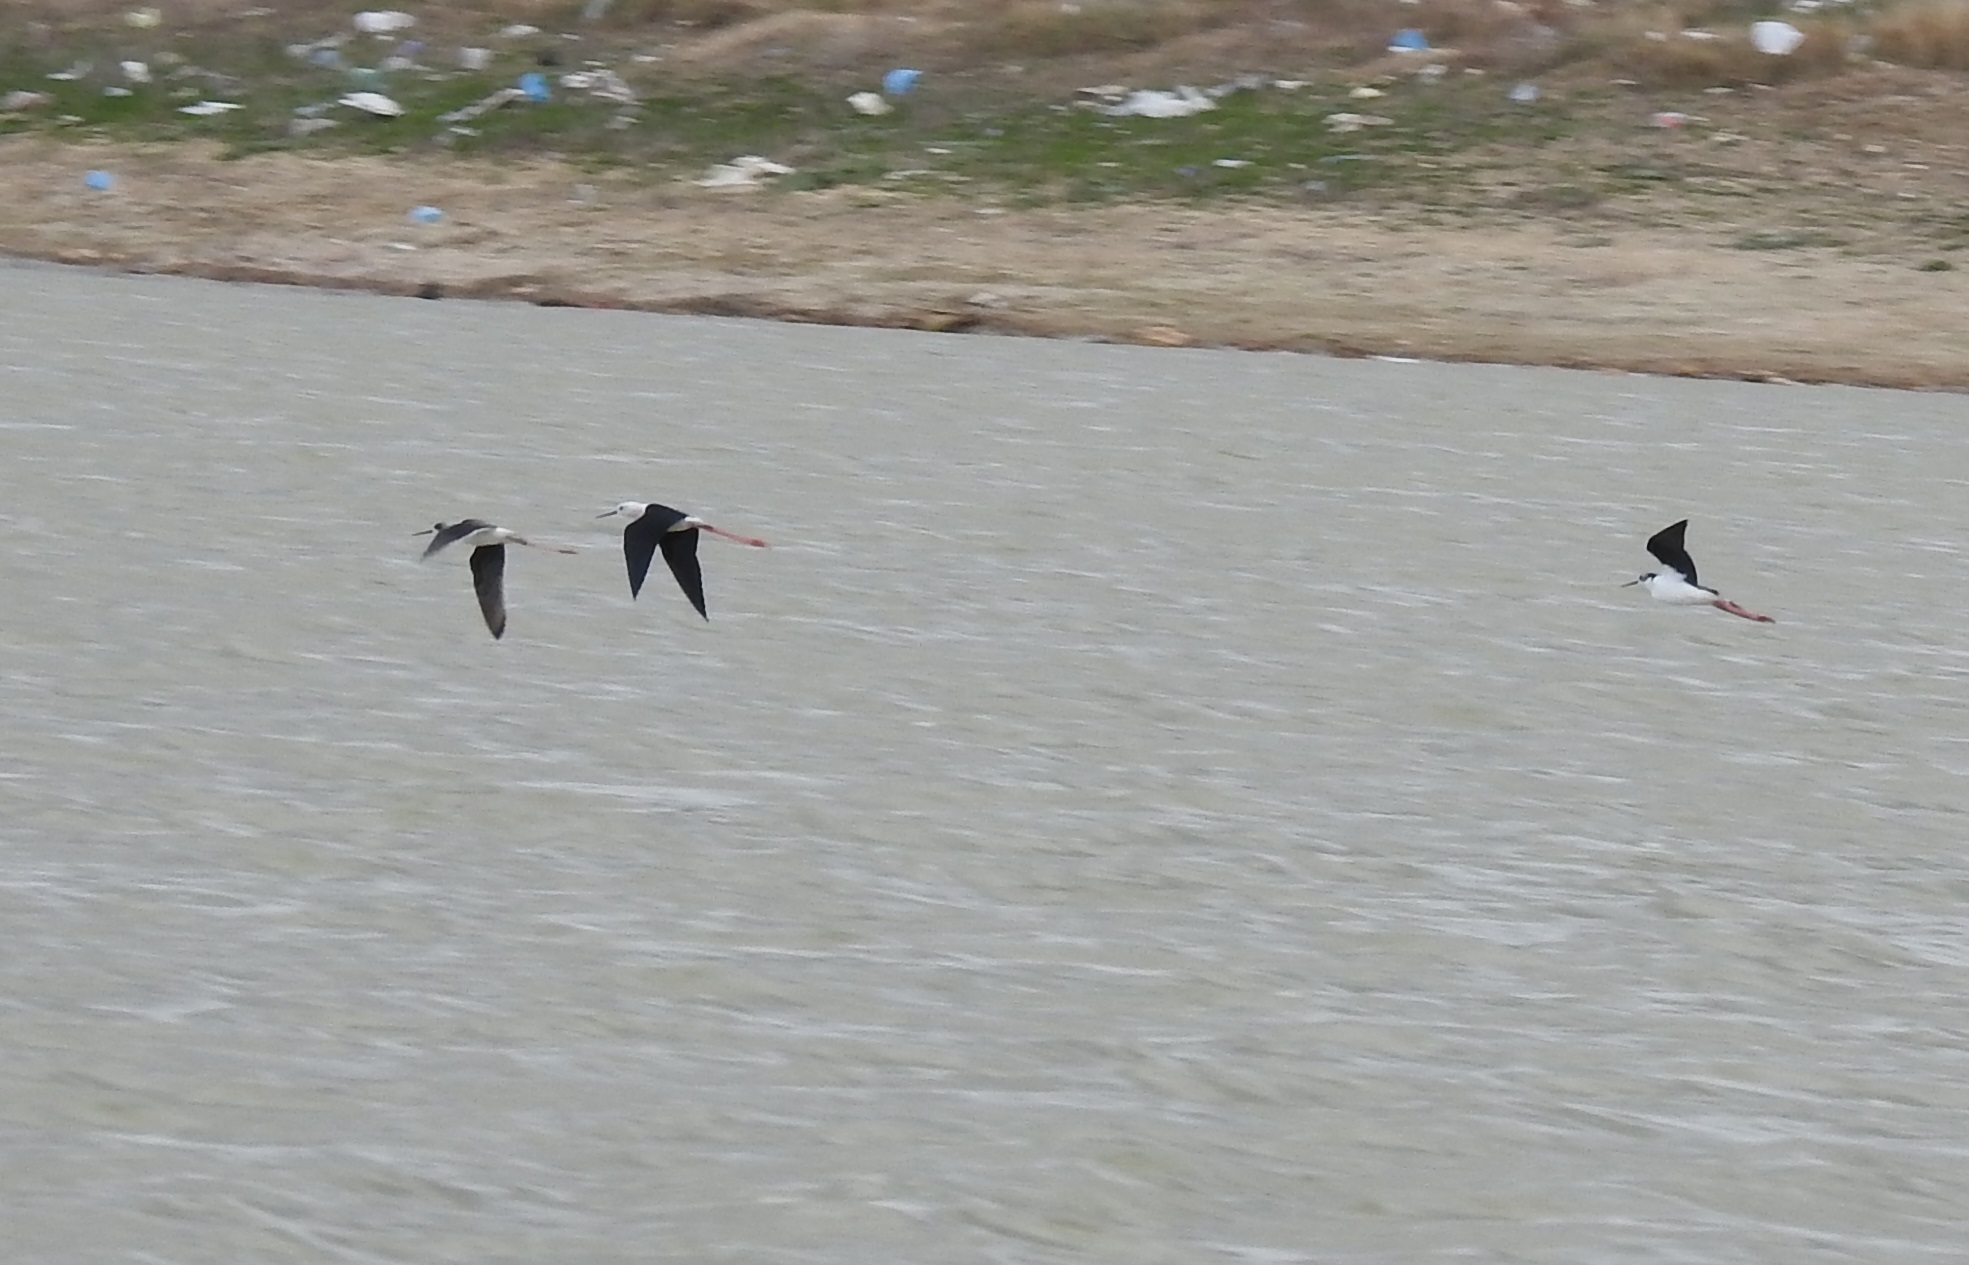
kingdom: Animalia
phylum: Chordata
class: Aves
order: Charadriiformes
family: Recurvirostridae
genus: Himantopus
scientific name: Himantopus himantopus
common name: Black-winged stilt
